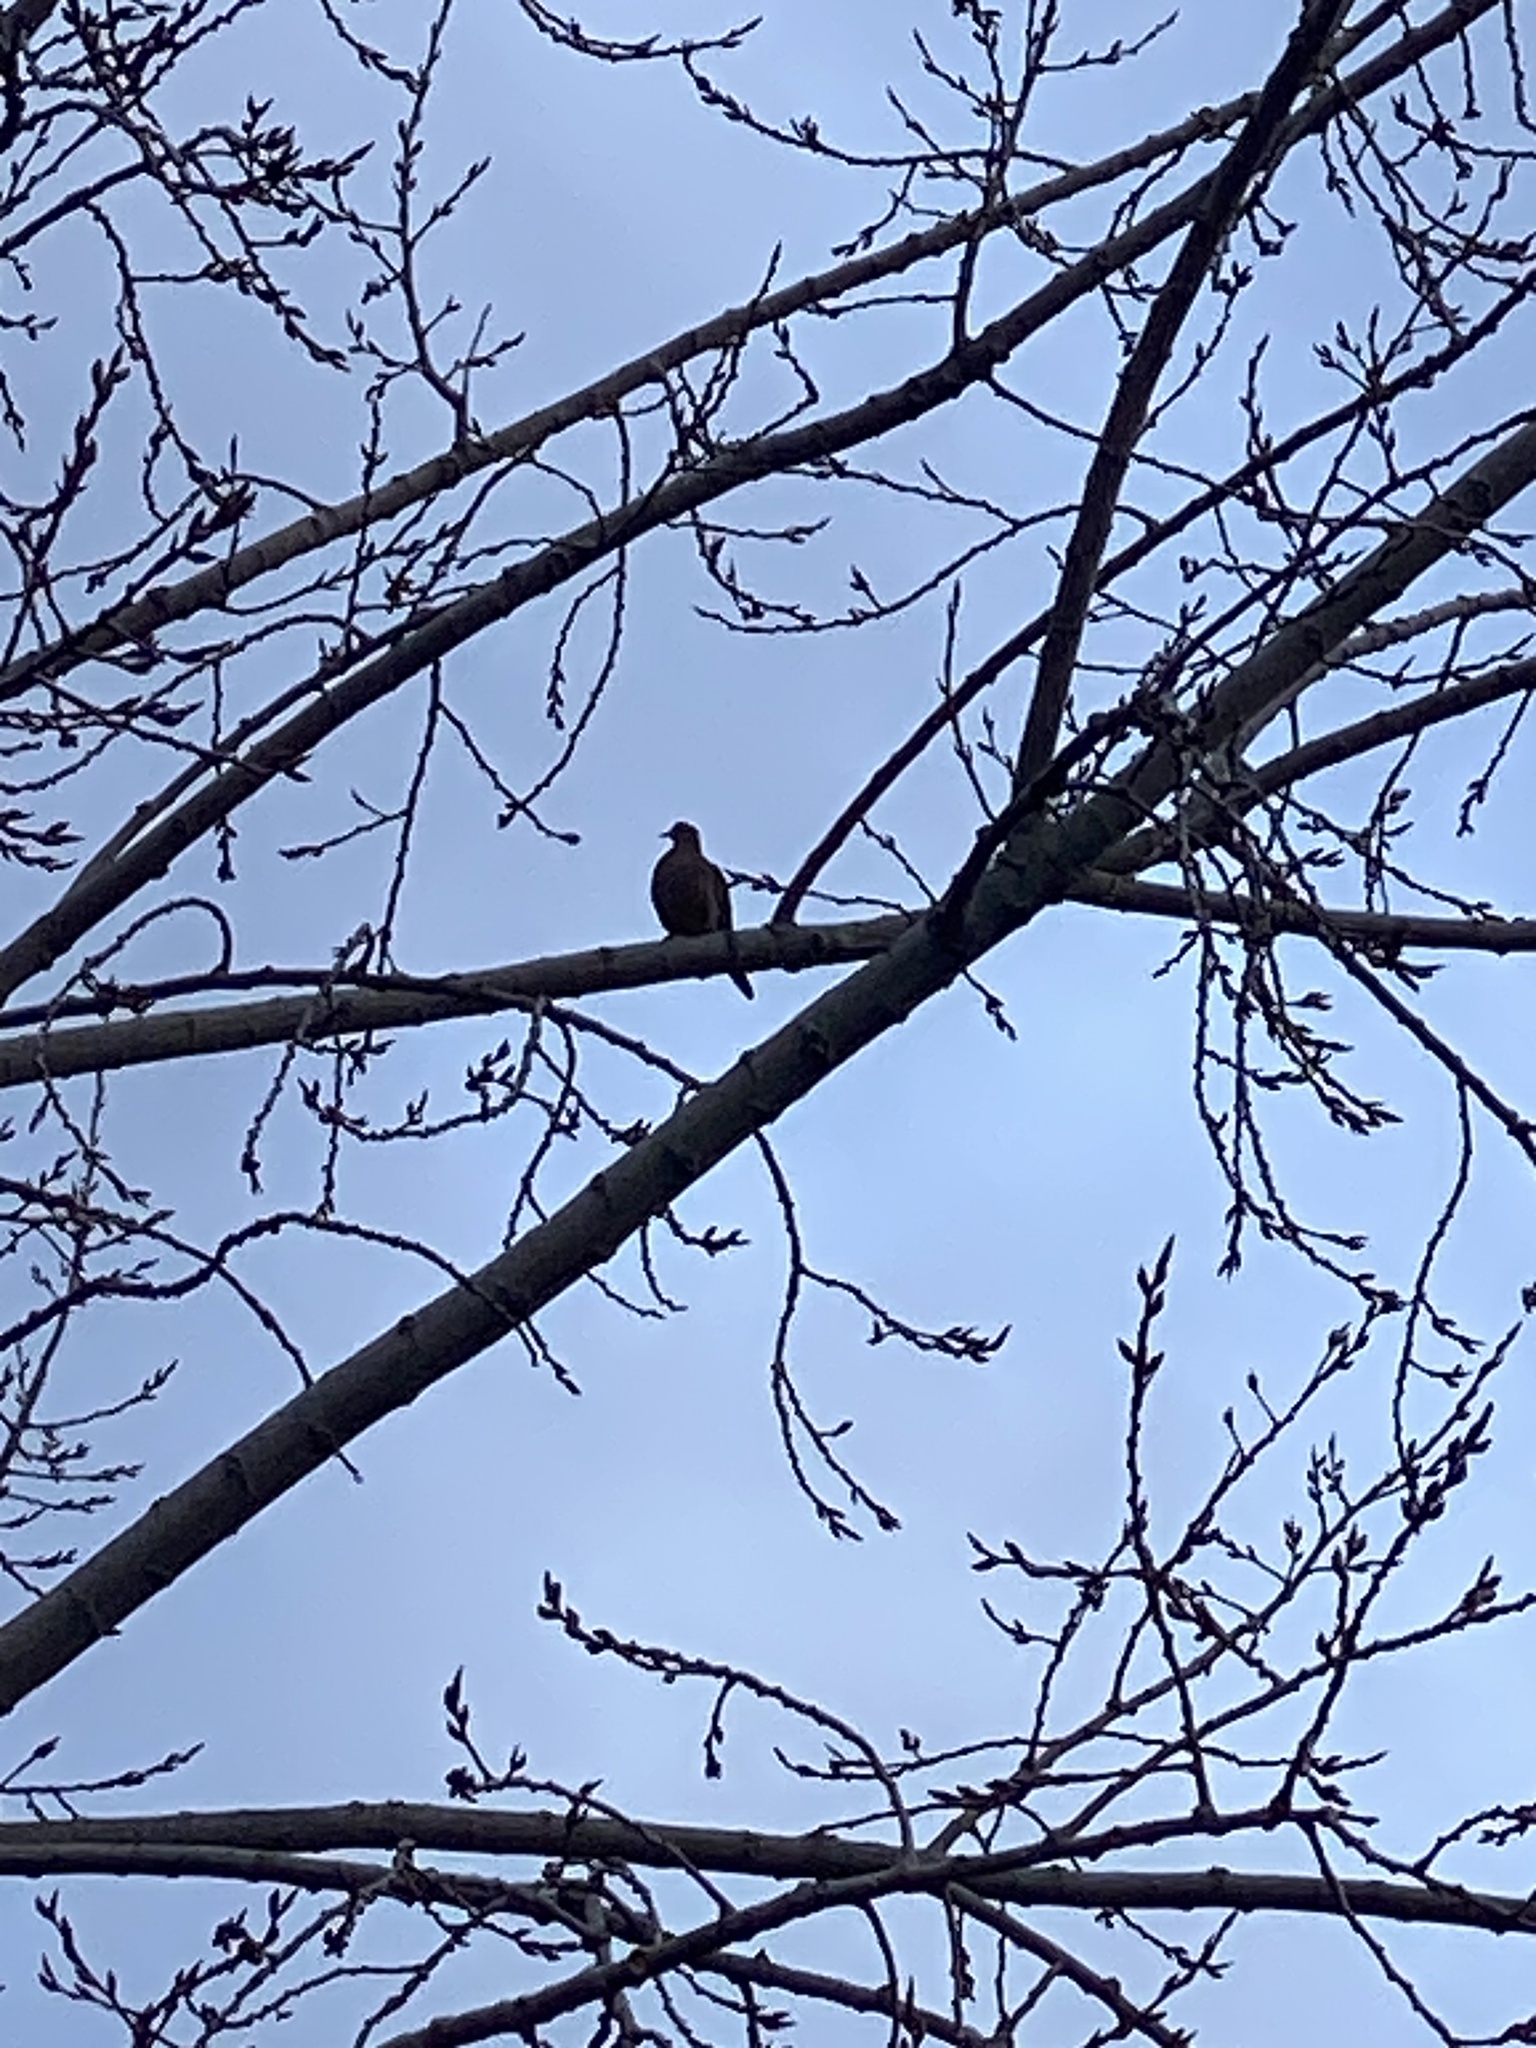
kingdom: Animalia
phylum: Chordata
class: Aves
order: Columbiformes
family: Columbidae
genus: Zenaida
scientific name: Zenaida macroura
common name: Mourning dove
